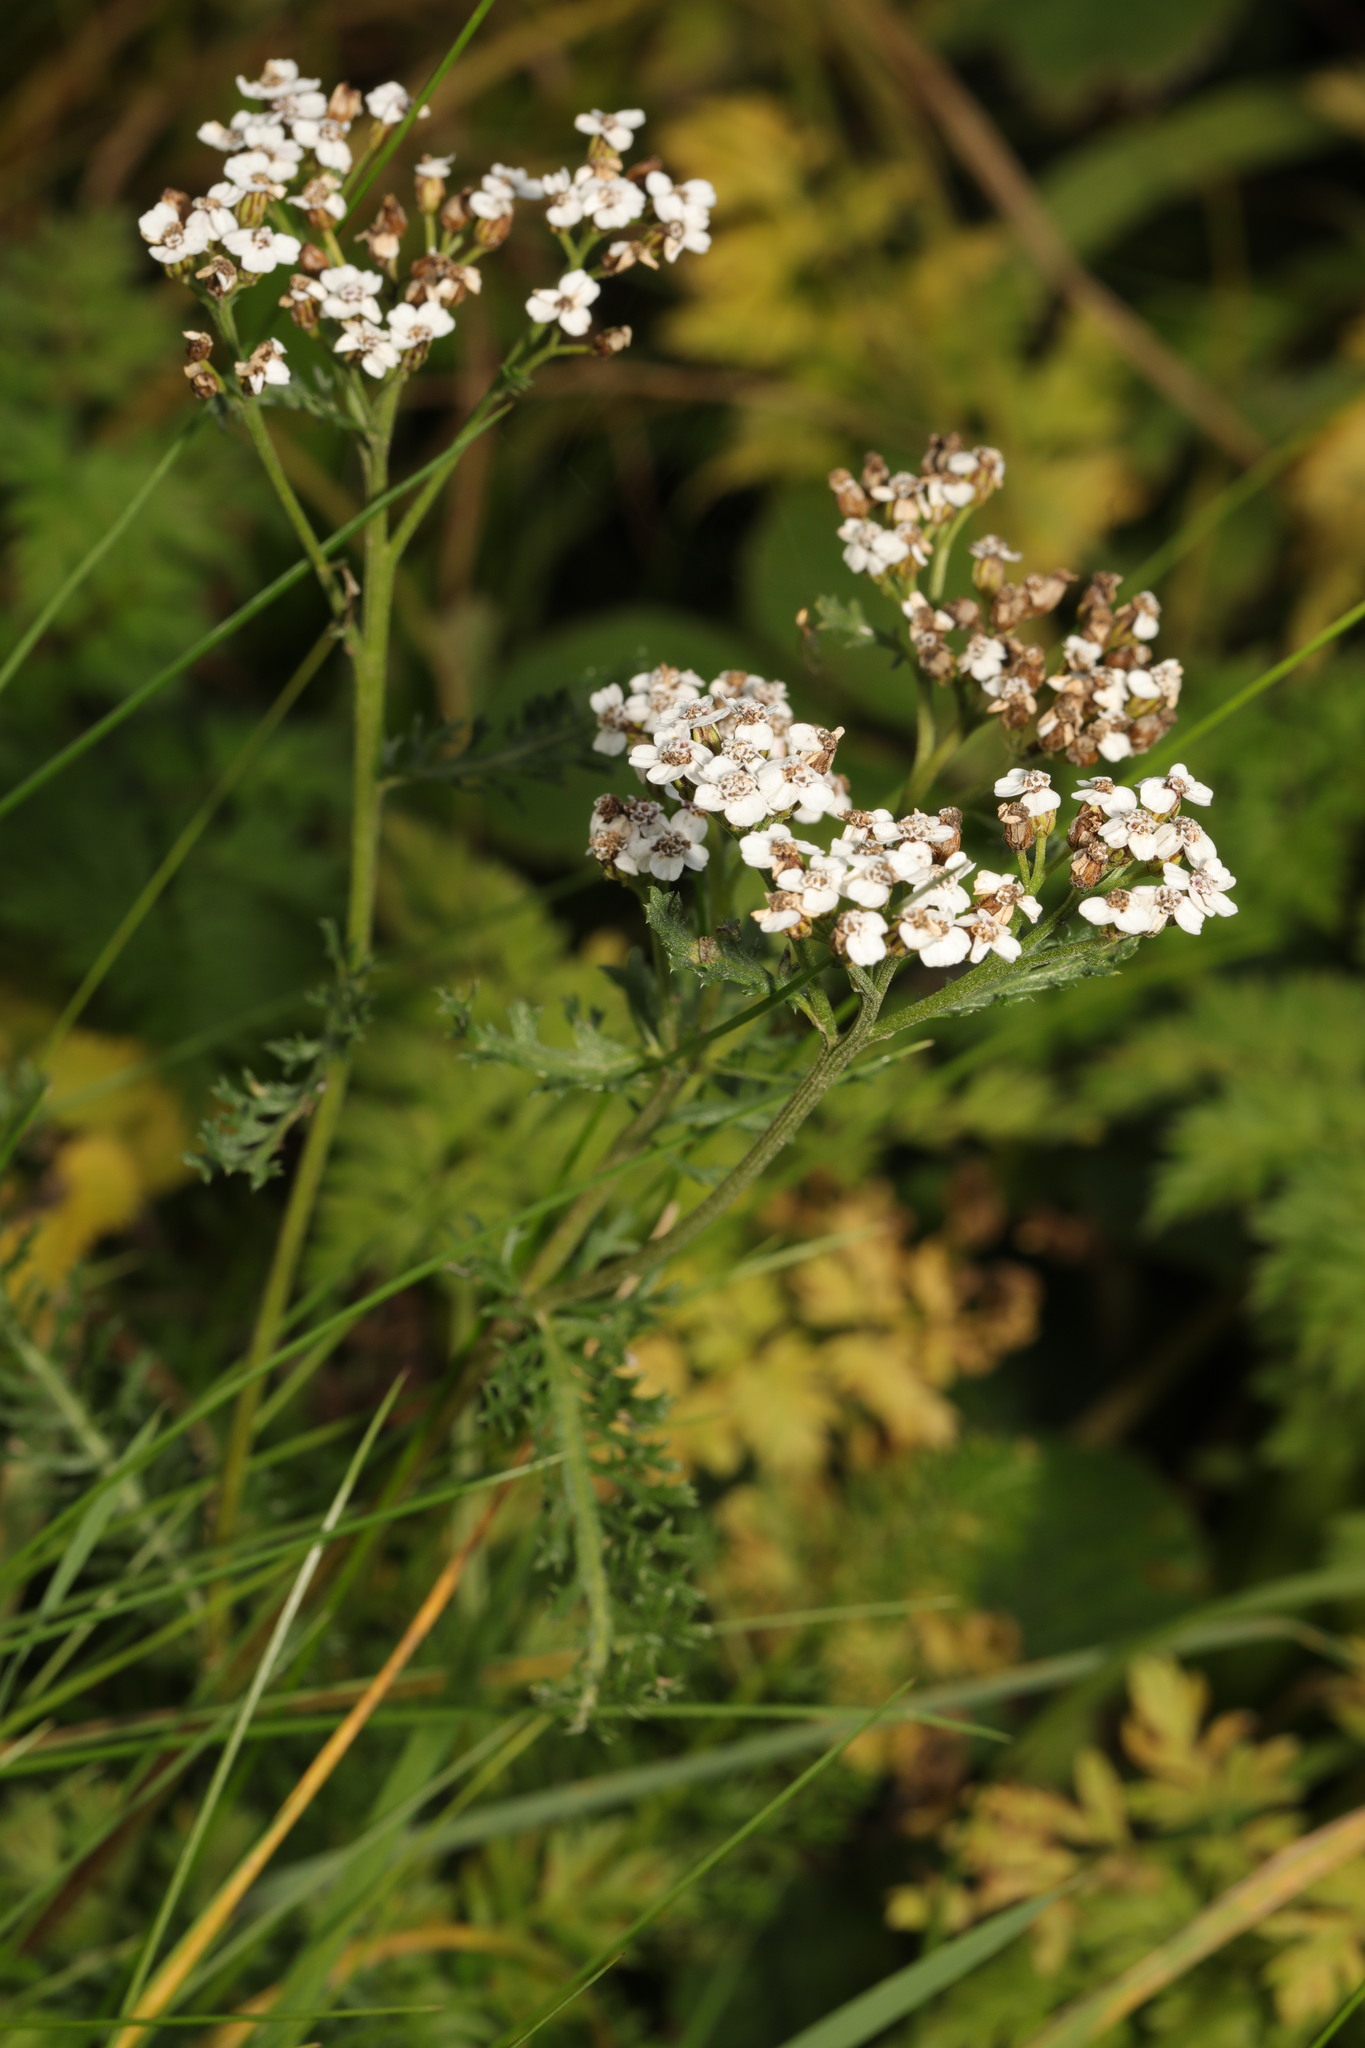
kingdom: Plantae
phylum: Tracheophyta
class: Magnoliopsida
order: Asterales
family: Asteraceae
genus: Achillea
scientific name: Achillea millefolium
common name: Yarrow
